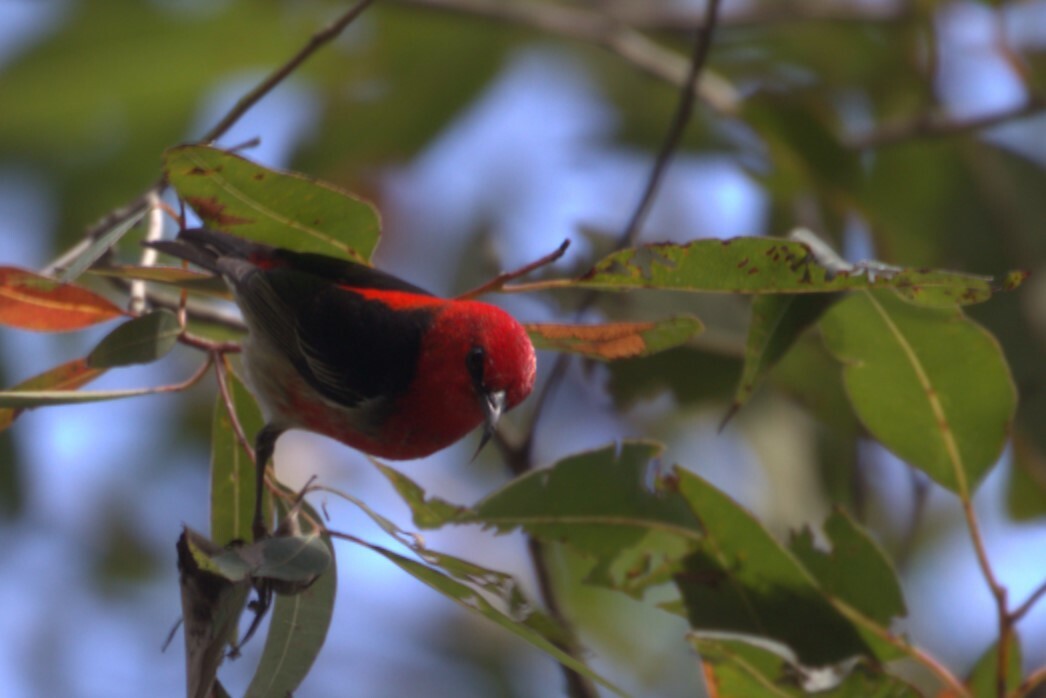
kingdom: Animalia
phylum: Chordata
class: Aves
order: Passeriformes
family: Meliphagidae
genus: Myzomela
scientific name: Myzomela sanguinolenta
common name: Scarlet myzomela
